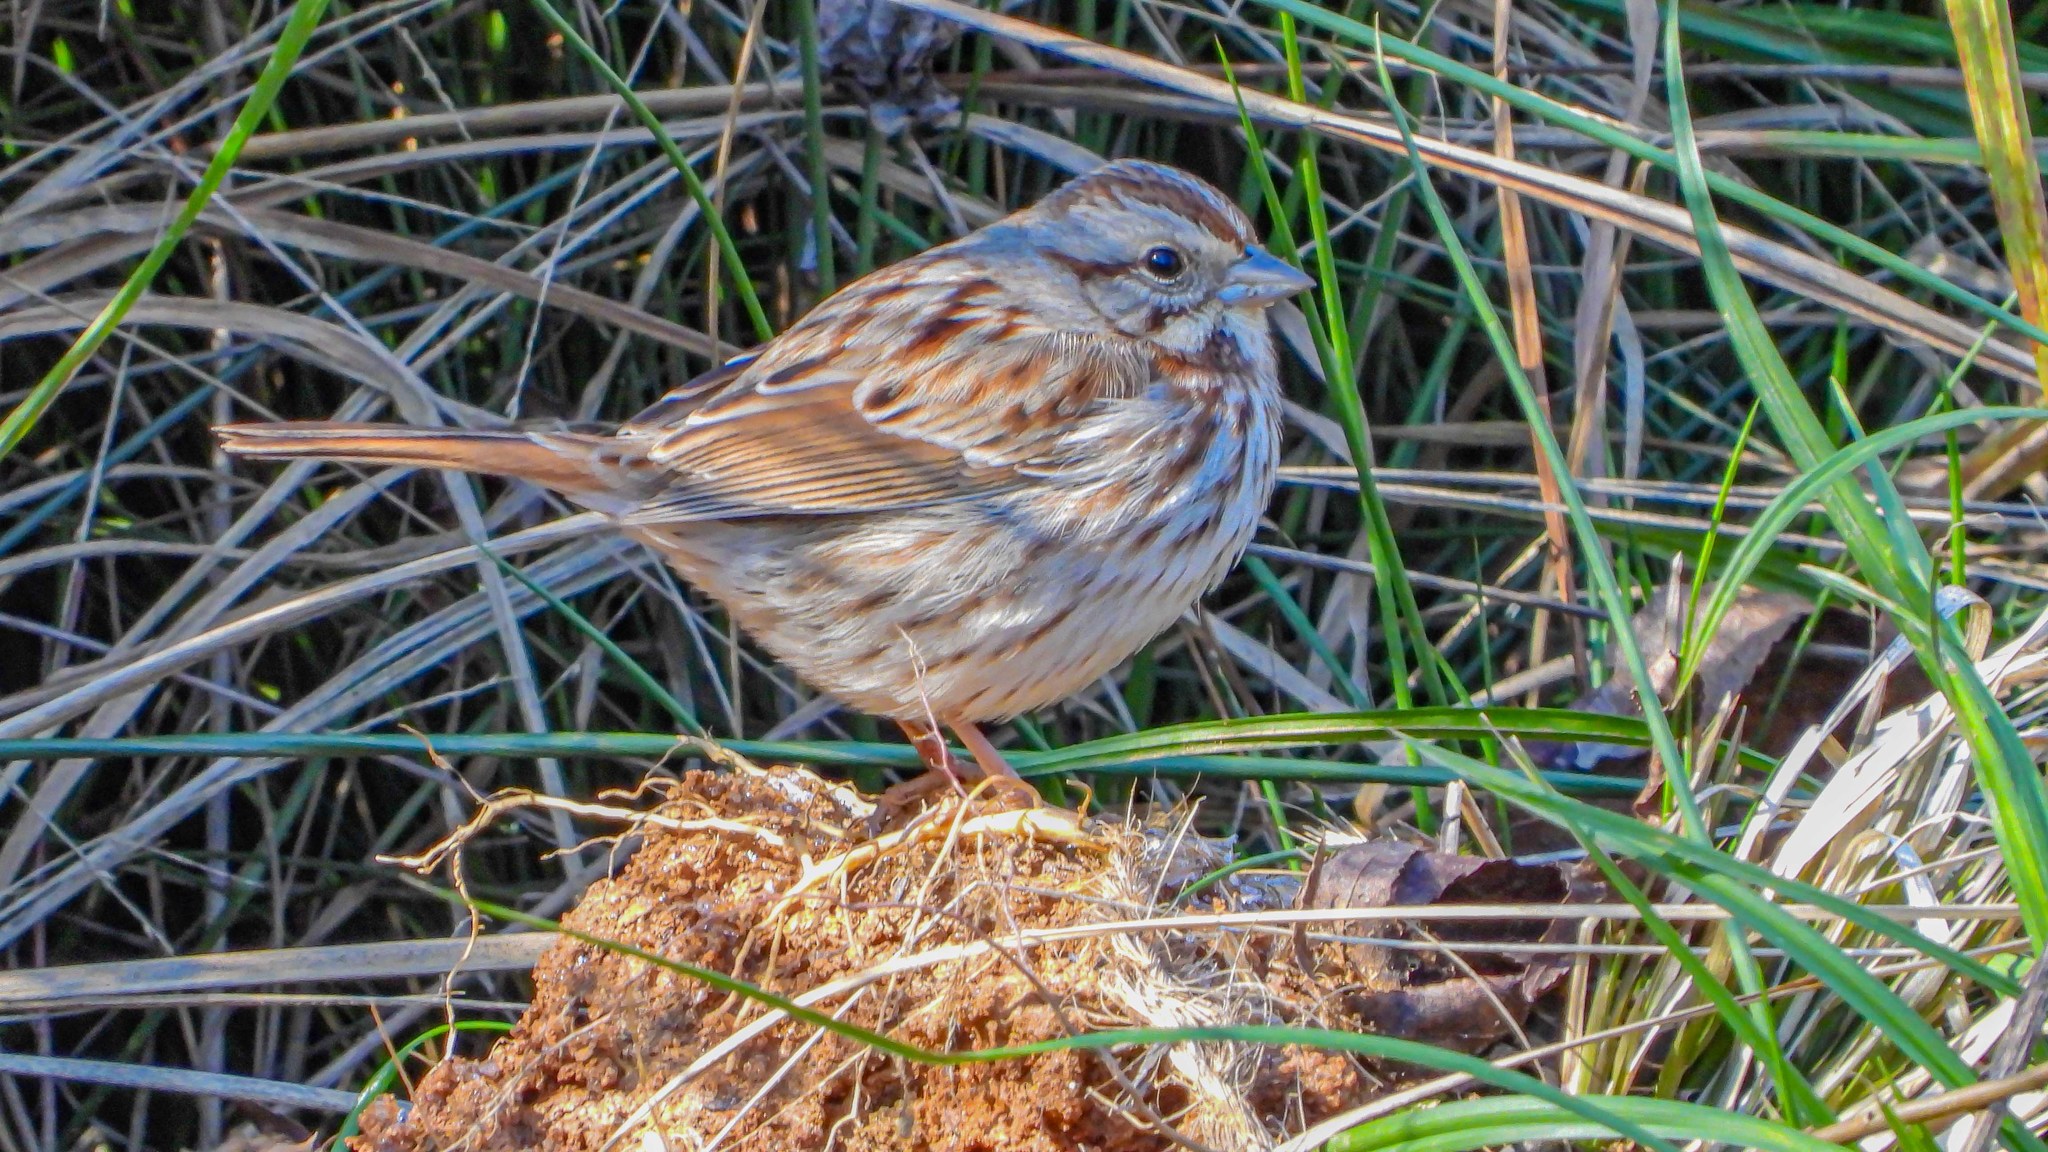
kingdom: Animalia
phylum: Chordata
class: Aves
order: Passeriformes
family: Passerellidae
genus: Melospiza
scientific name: Melospiza melodia
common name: Song sparrow
